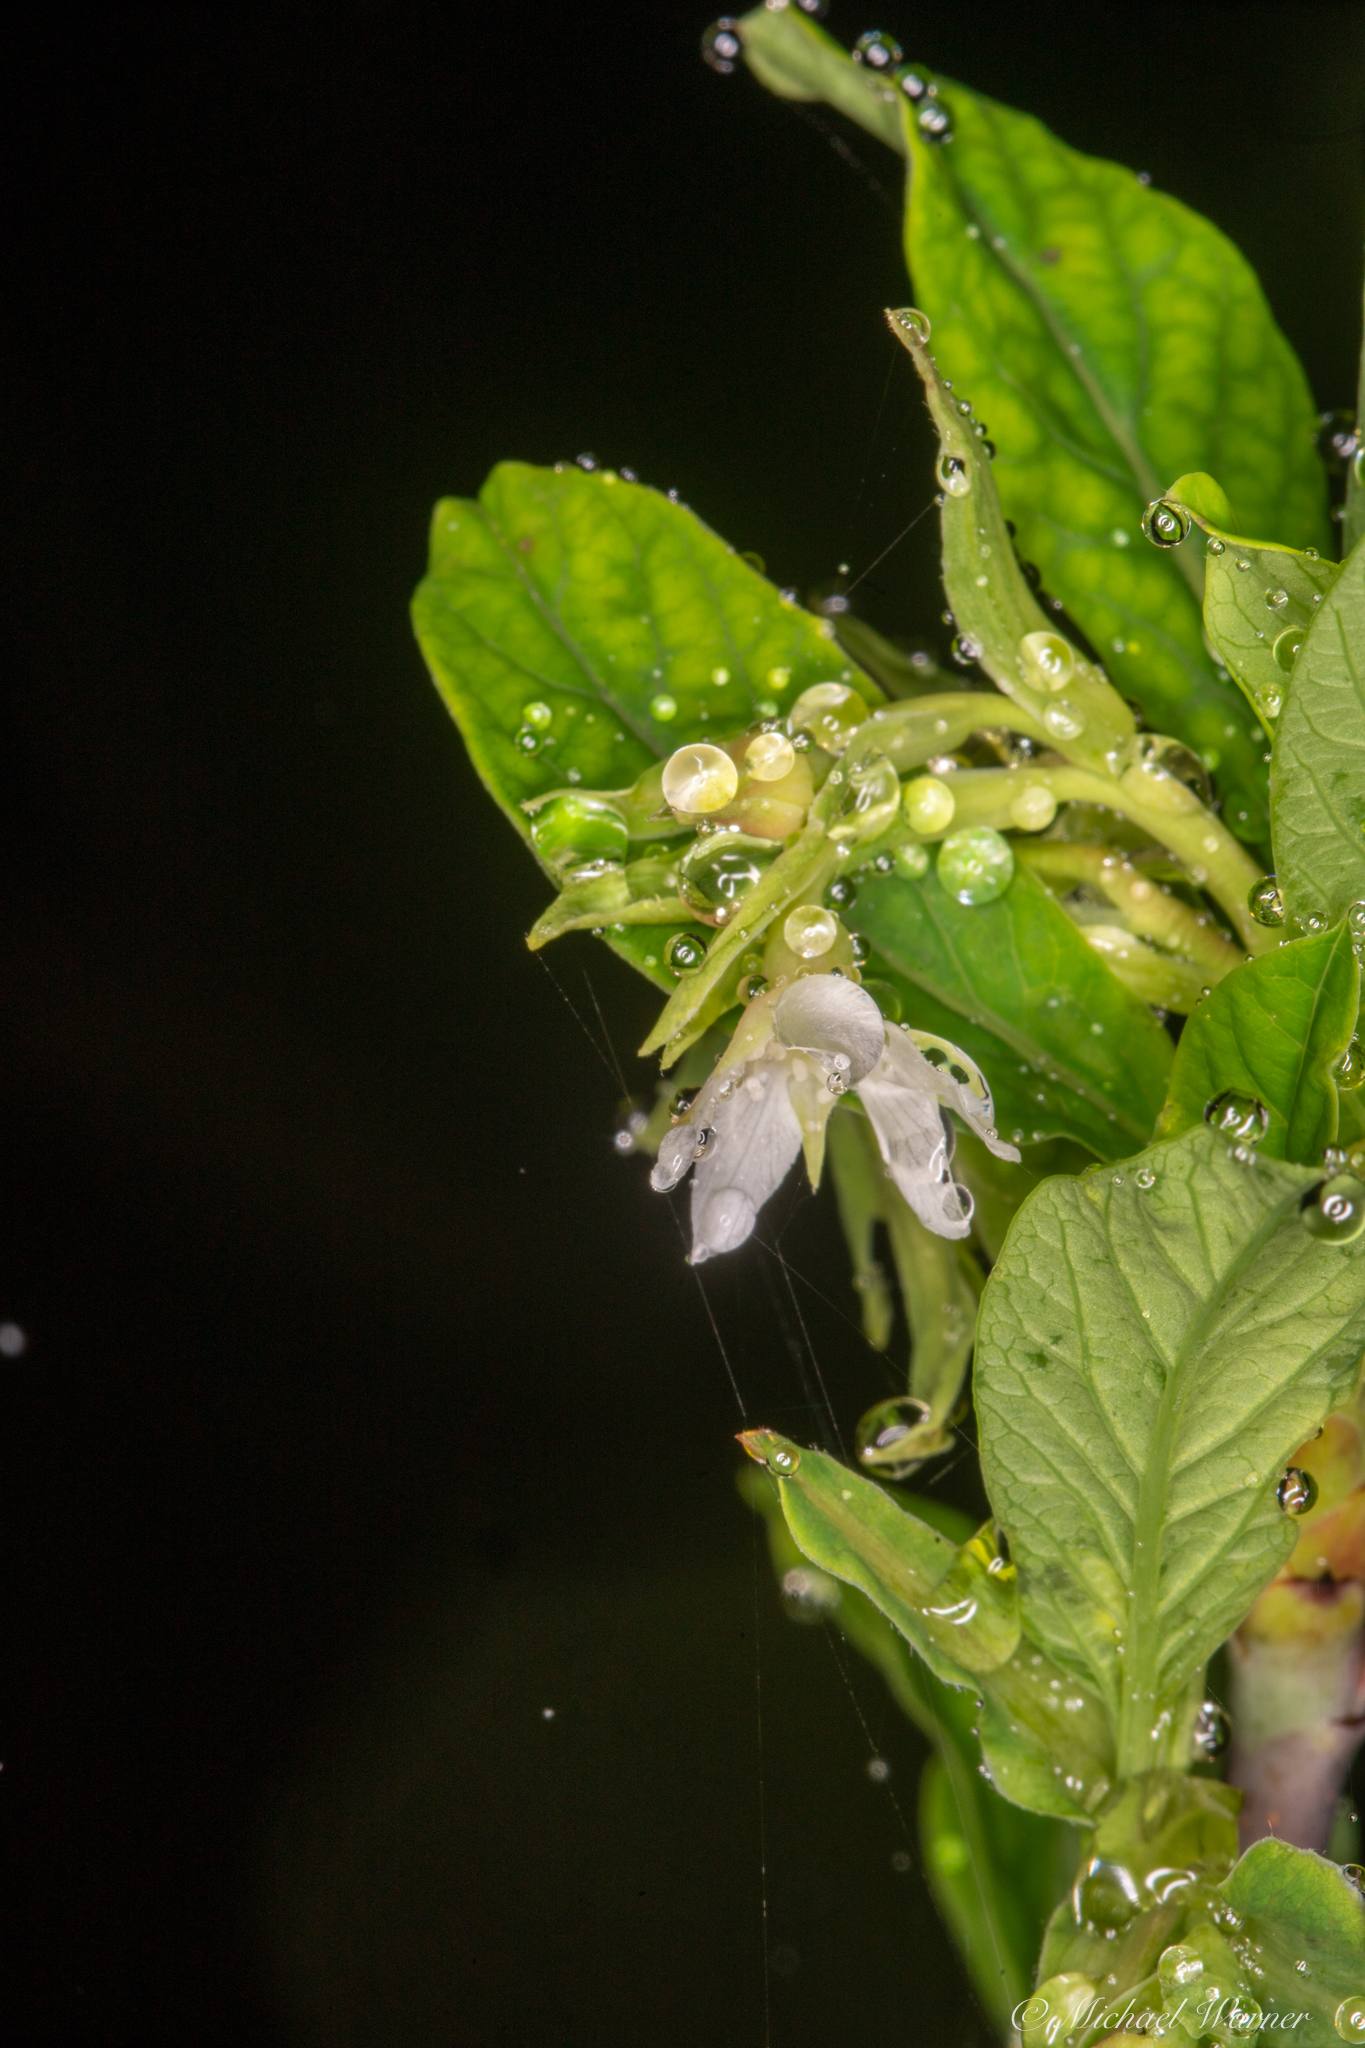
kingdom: Plantae
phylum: Tracheophyta
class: Magnoliopsida
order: Rosales
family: Rosaceae
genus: Oemleria
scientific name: Oemleria cerasiformis
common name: Osoberry
